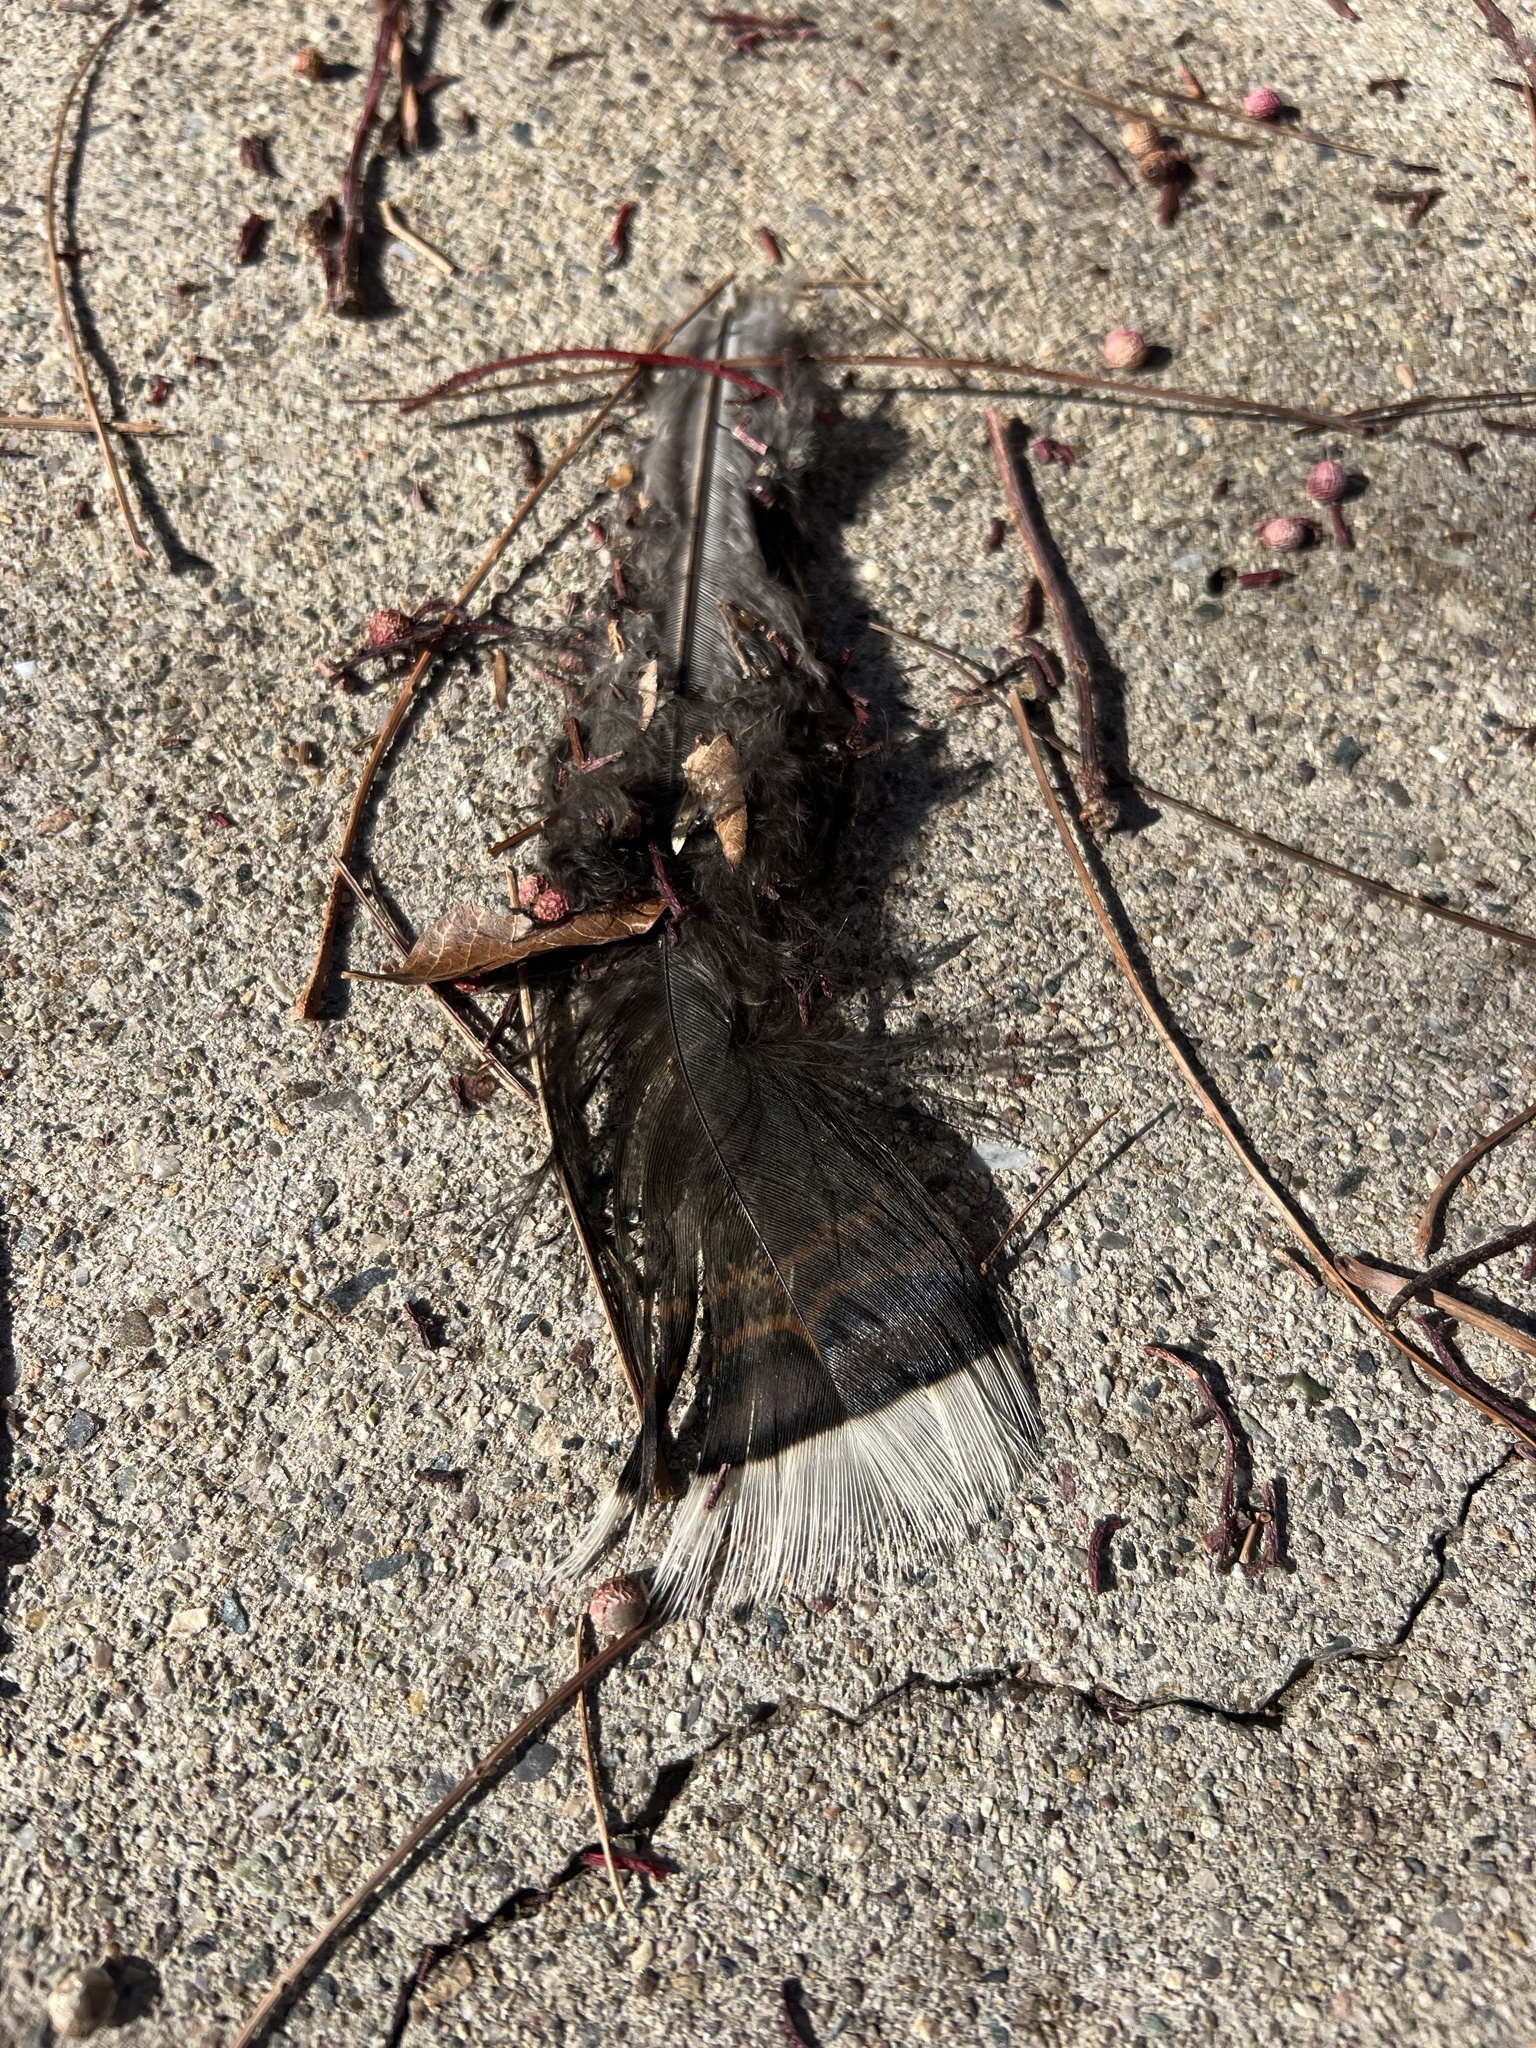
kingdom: Animalia
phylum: Chordata
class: Aves
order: Galliformes
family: Phasianidae
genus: Meleagris
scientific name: Meleagris gallopavo
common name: Wild turkey
